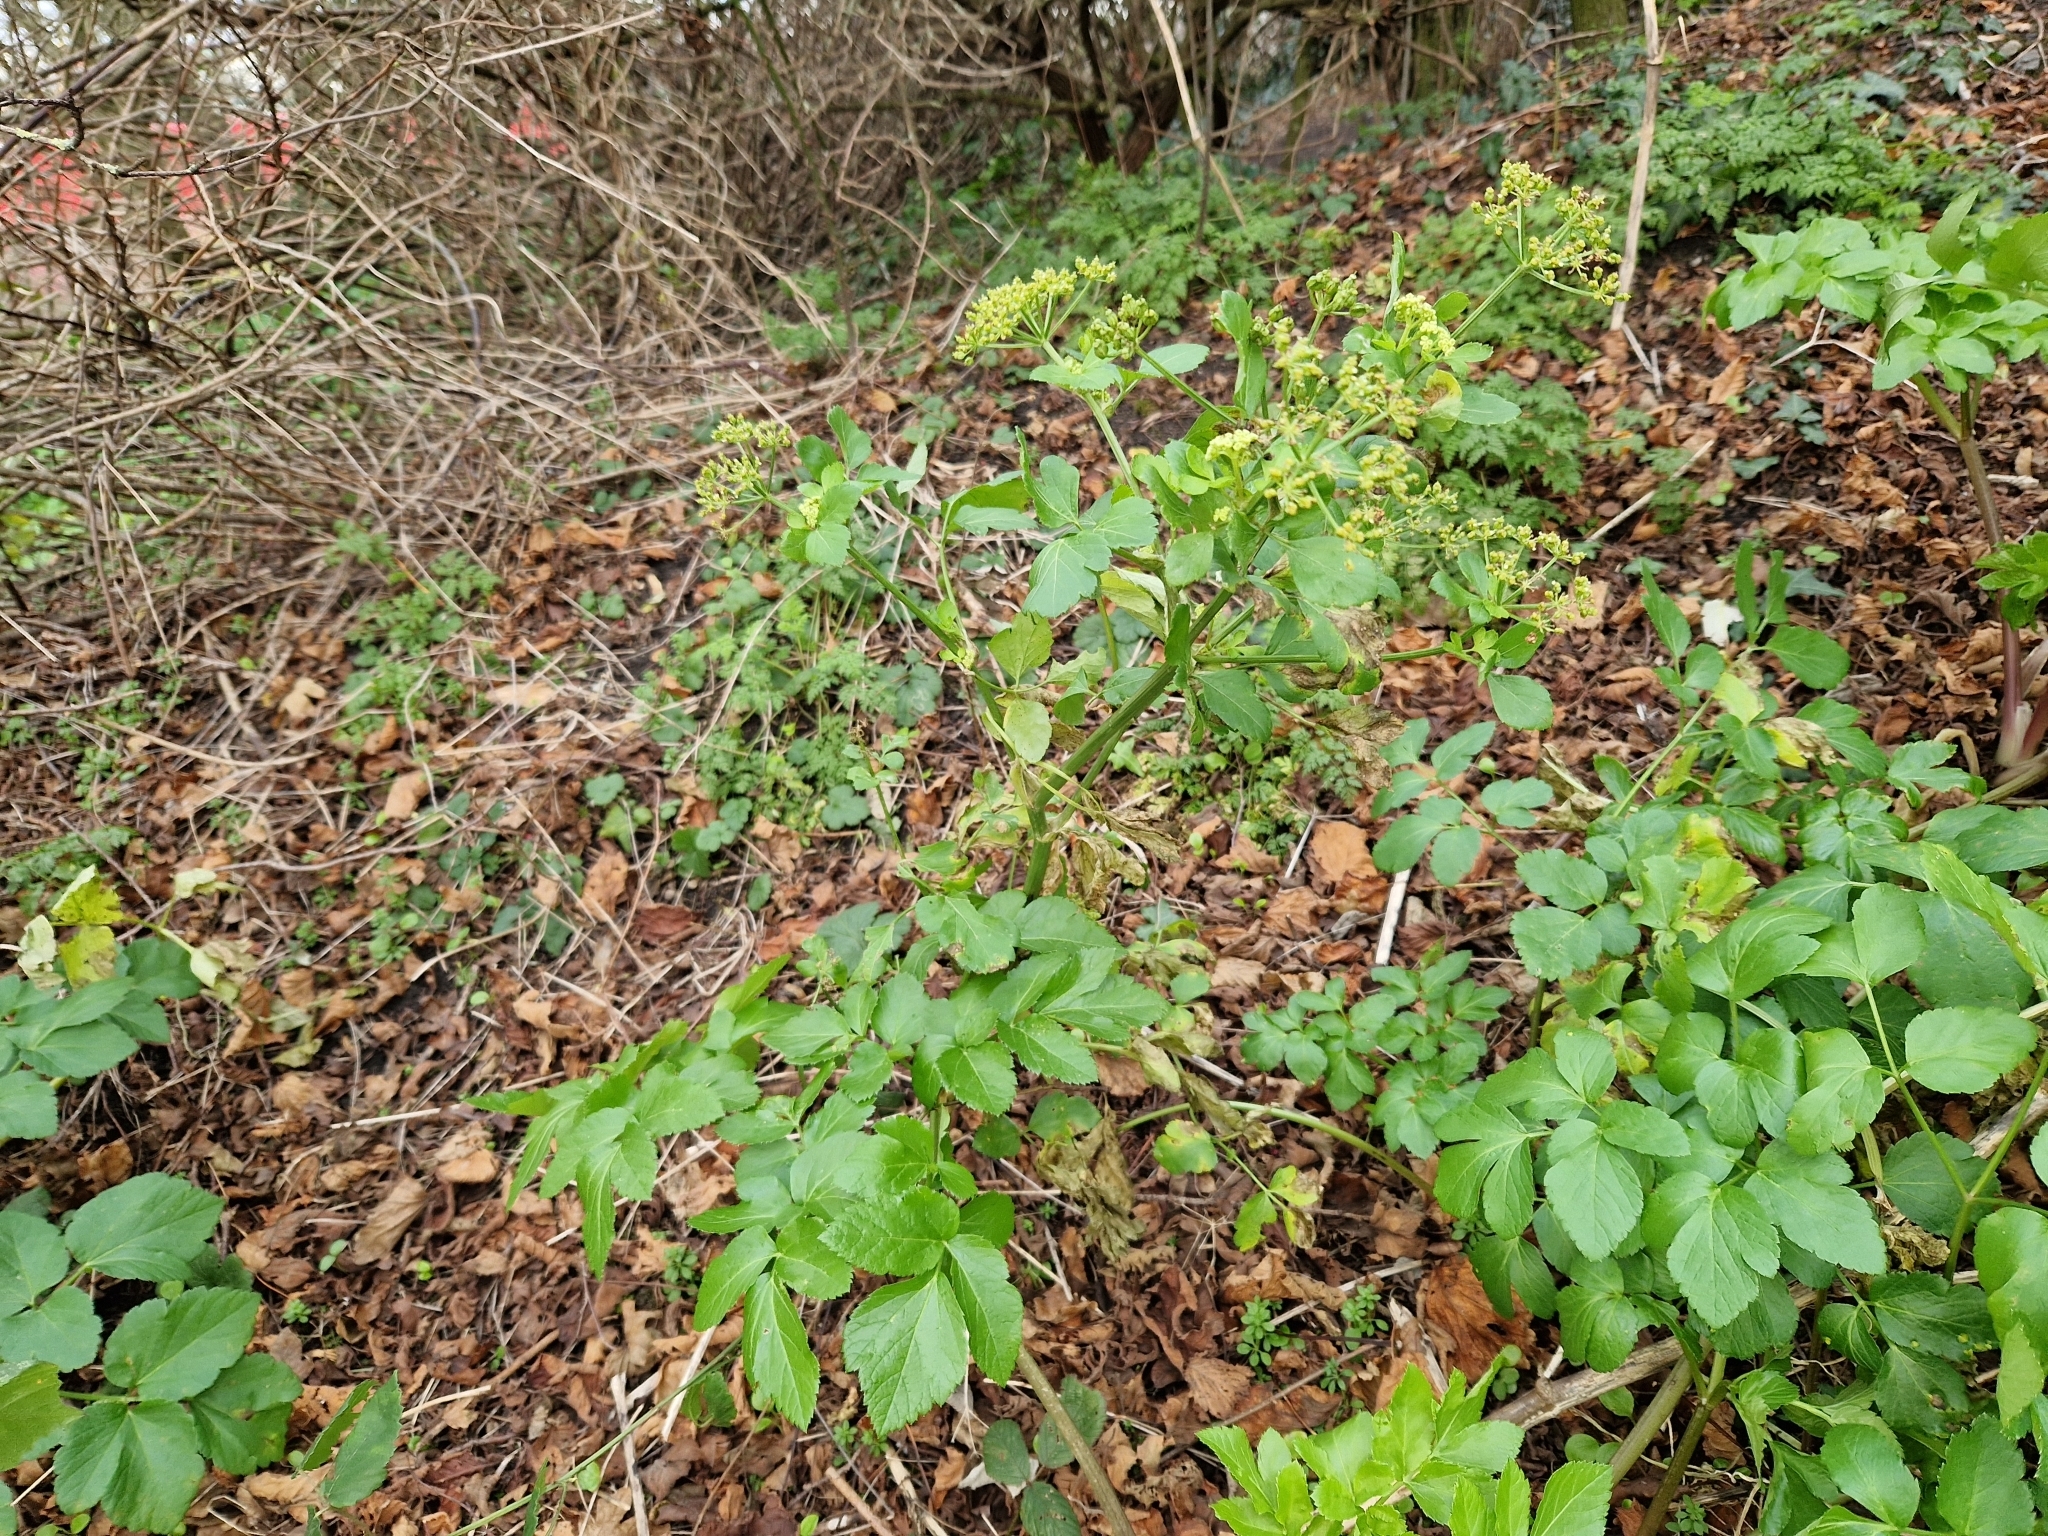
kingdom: Plantae
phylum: Tracheophyta
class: Magnoliopsida
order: Apiales
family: Apiaceae
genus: Smyrnium
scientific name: Smyrnium olusatrum
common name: Alexanders
